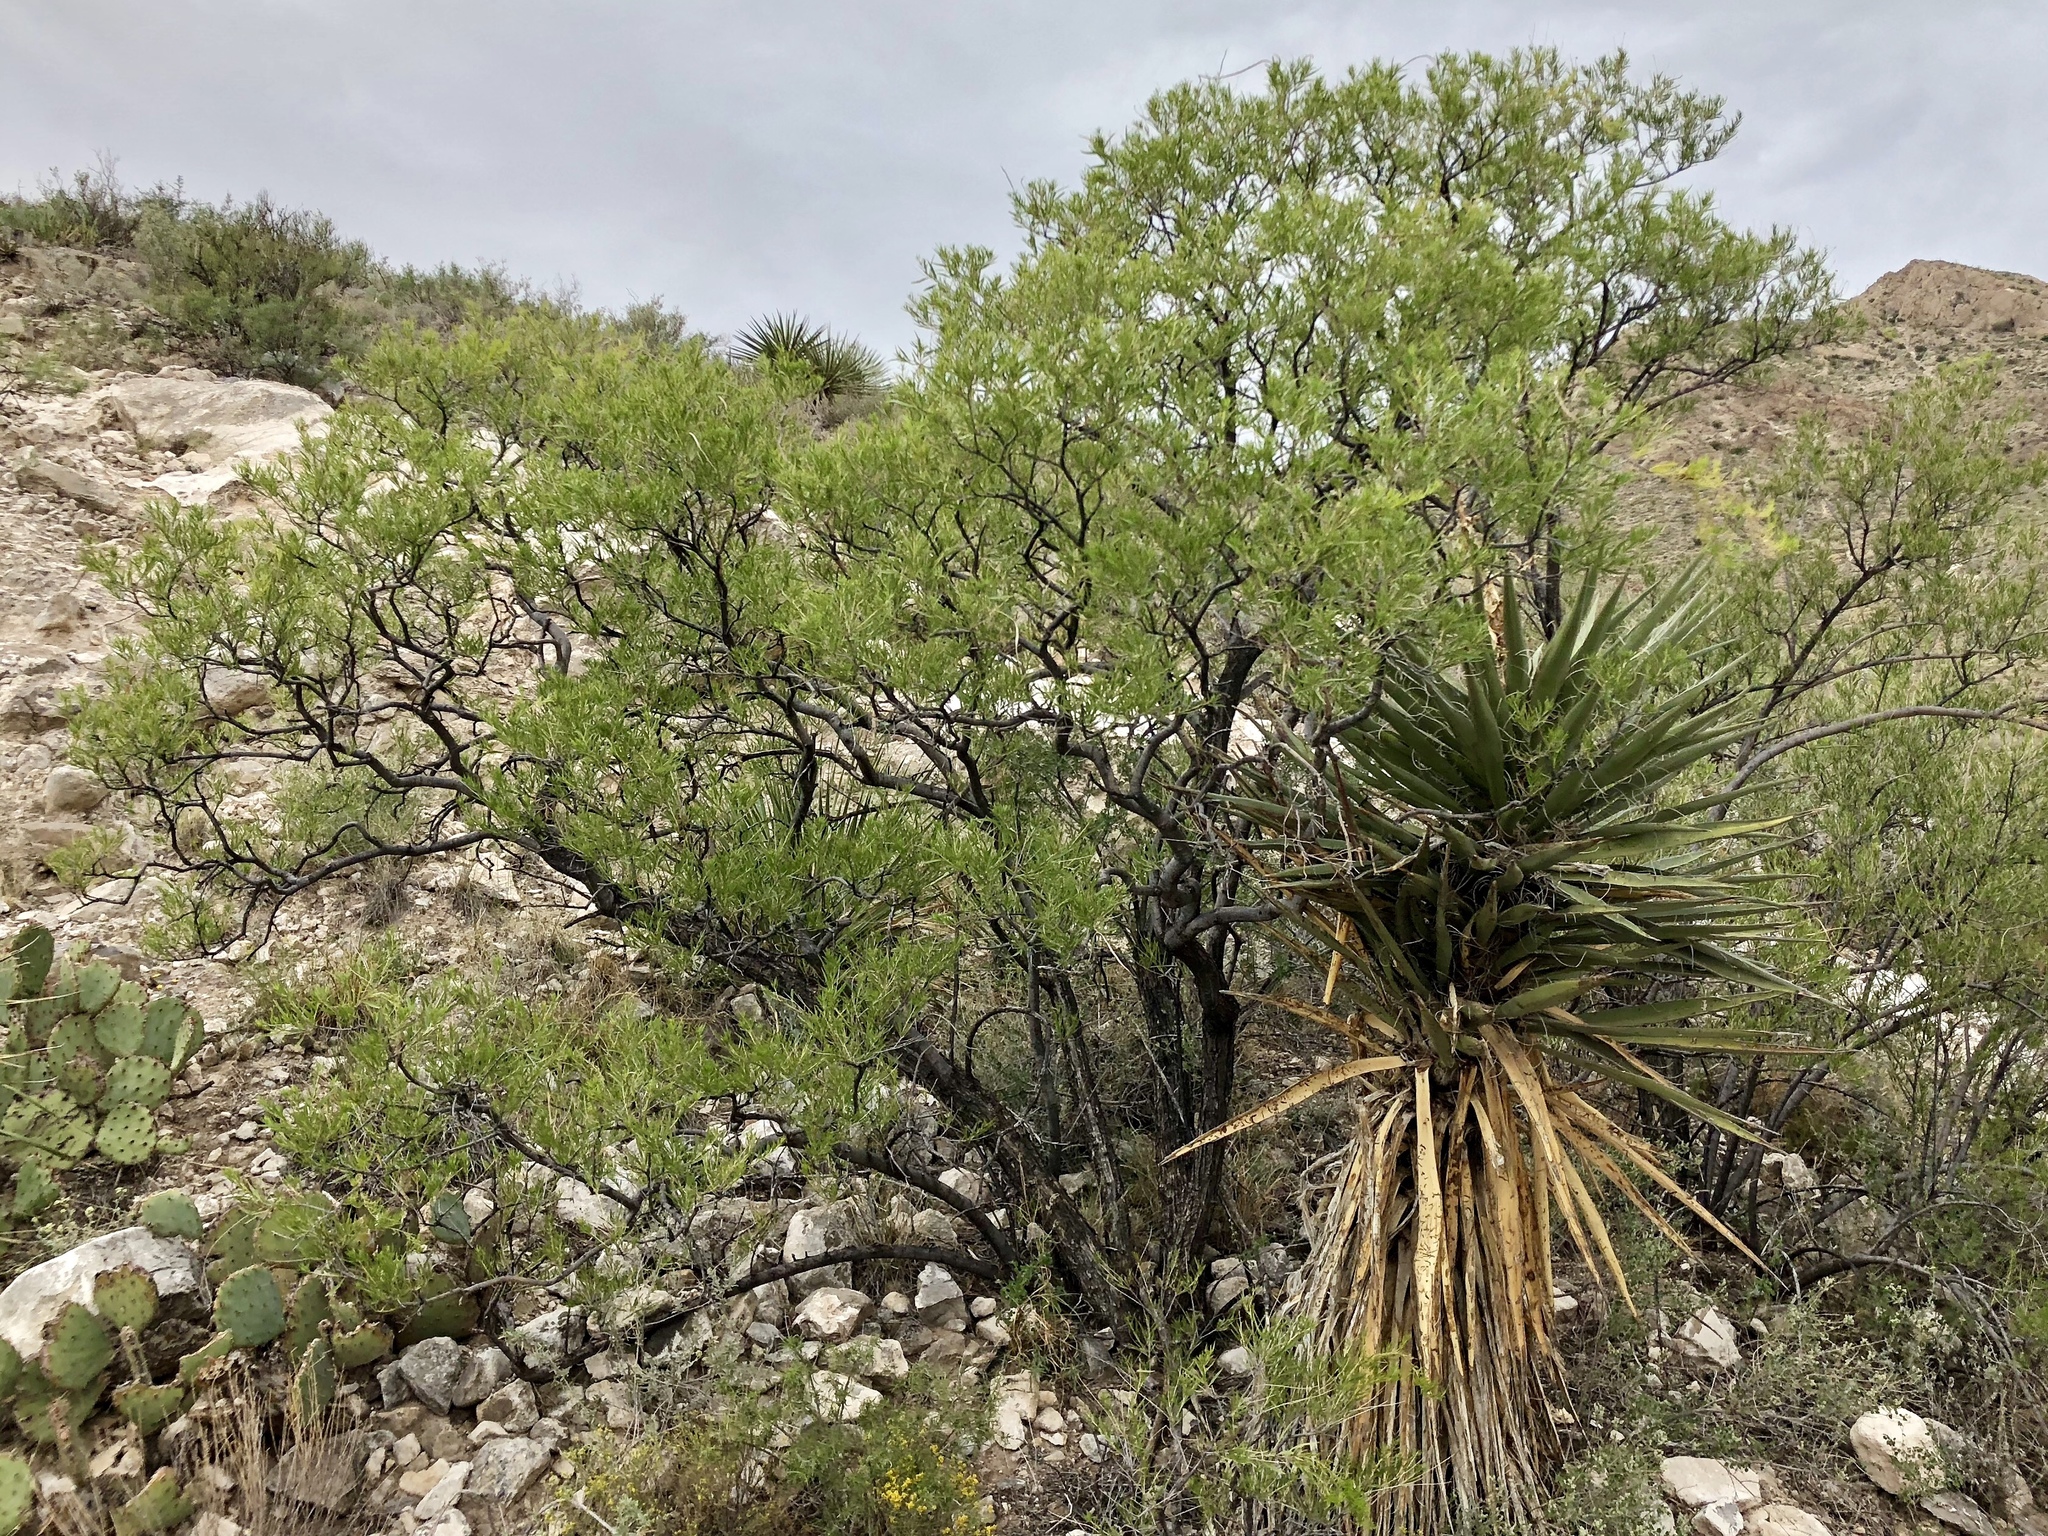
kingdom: Plantae
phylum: Tracheophyta
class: Liliopsida
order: Asparagales
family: Asparagaceae
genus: Yucca
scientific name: Yucca treculiana
